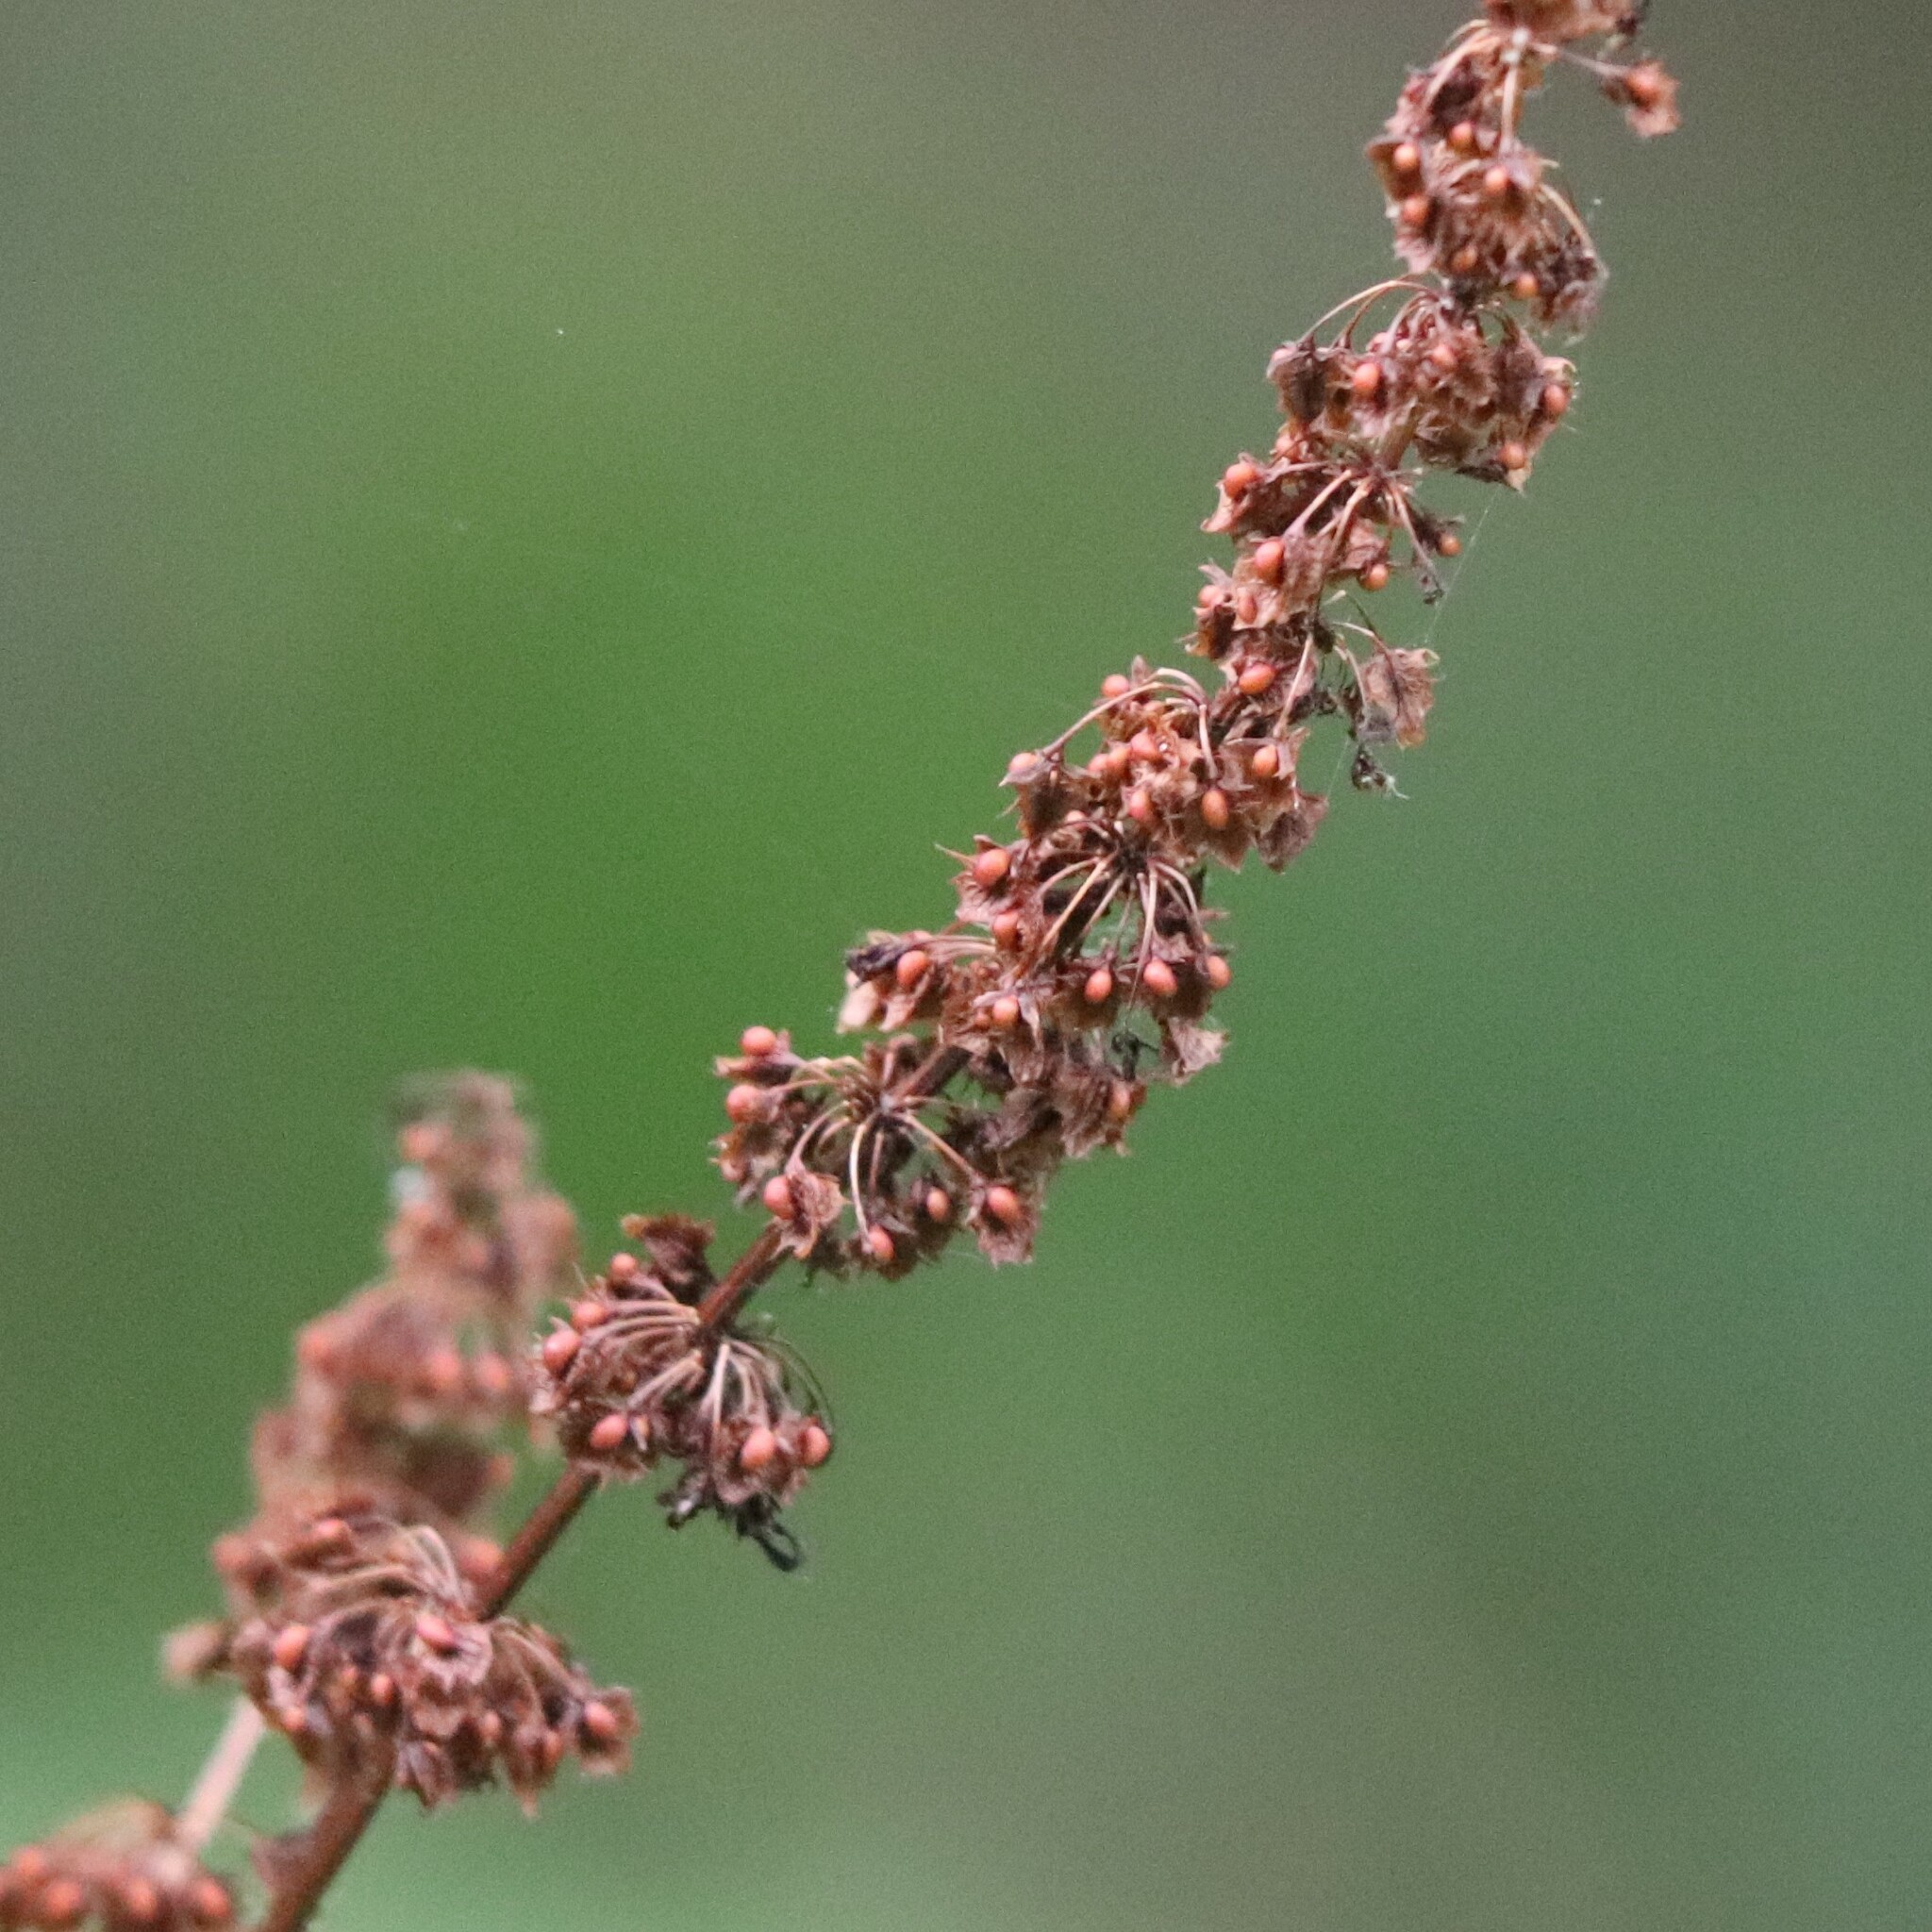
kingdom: Plantae
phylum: Tracheophyta
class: Magnoliopsida
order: Caryophyllales
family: Polygonaceae
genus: Rumex
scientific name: Rumex obtusifolius
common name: Bitter dock
